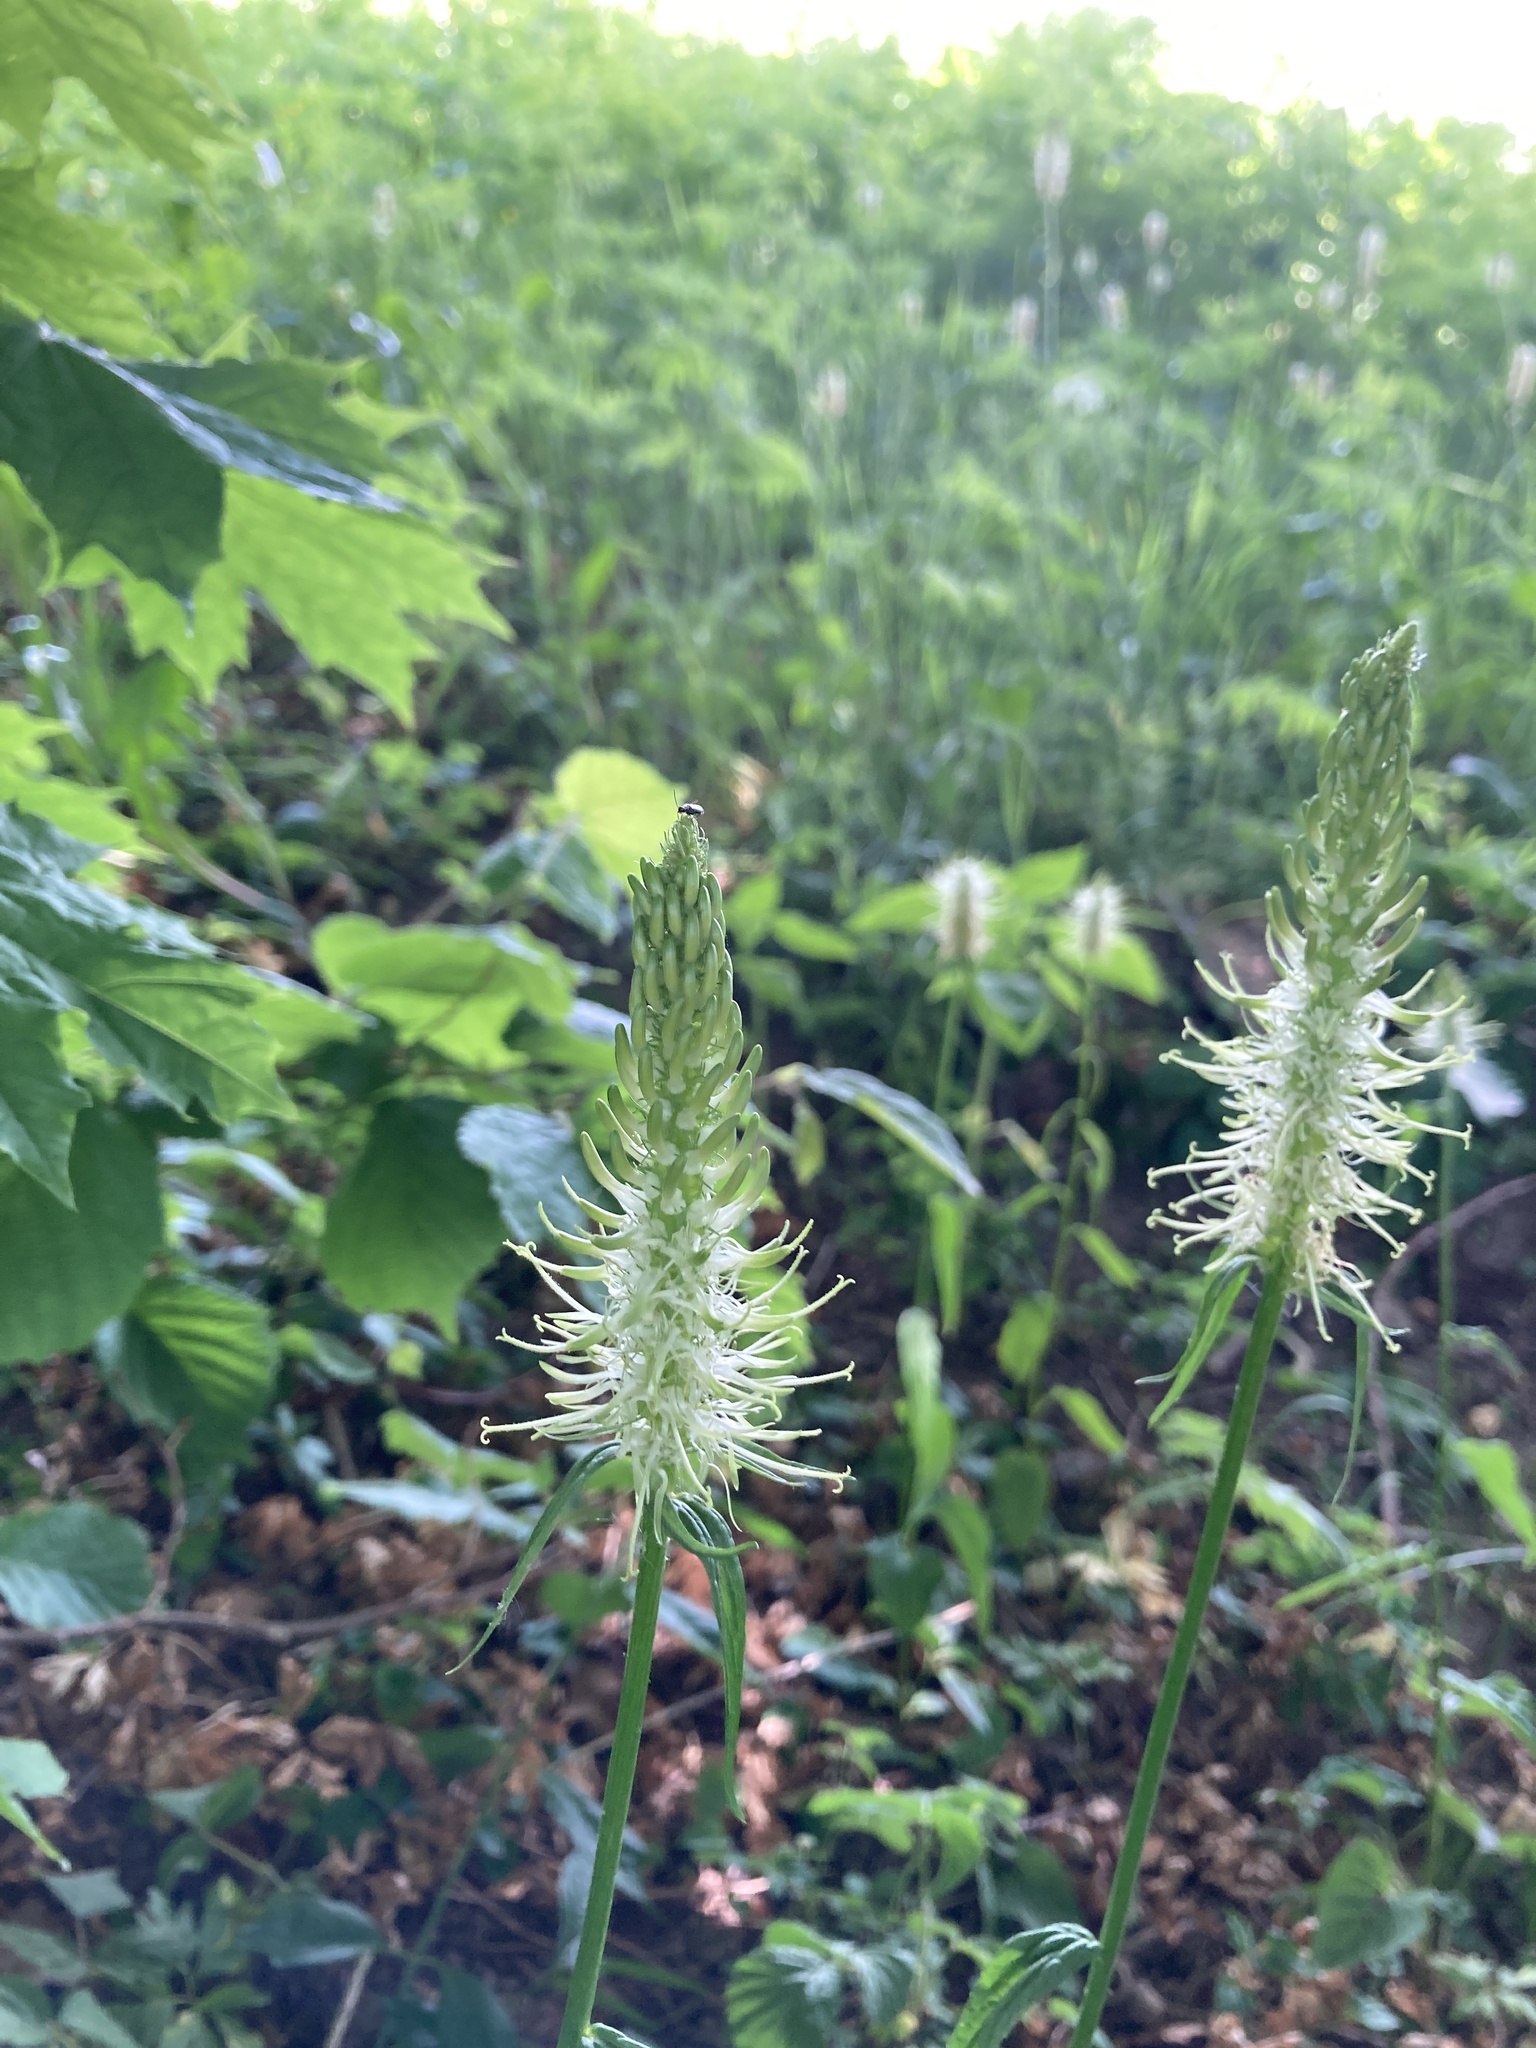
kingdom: Plantae
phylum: Tracheophyta
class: Magnoliopsida
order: Asterales
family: Campanulaceae
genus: Phyteuma
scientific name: Phyteuma spicatum
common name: Spiked rampion
